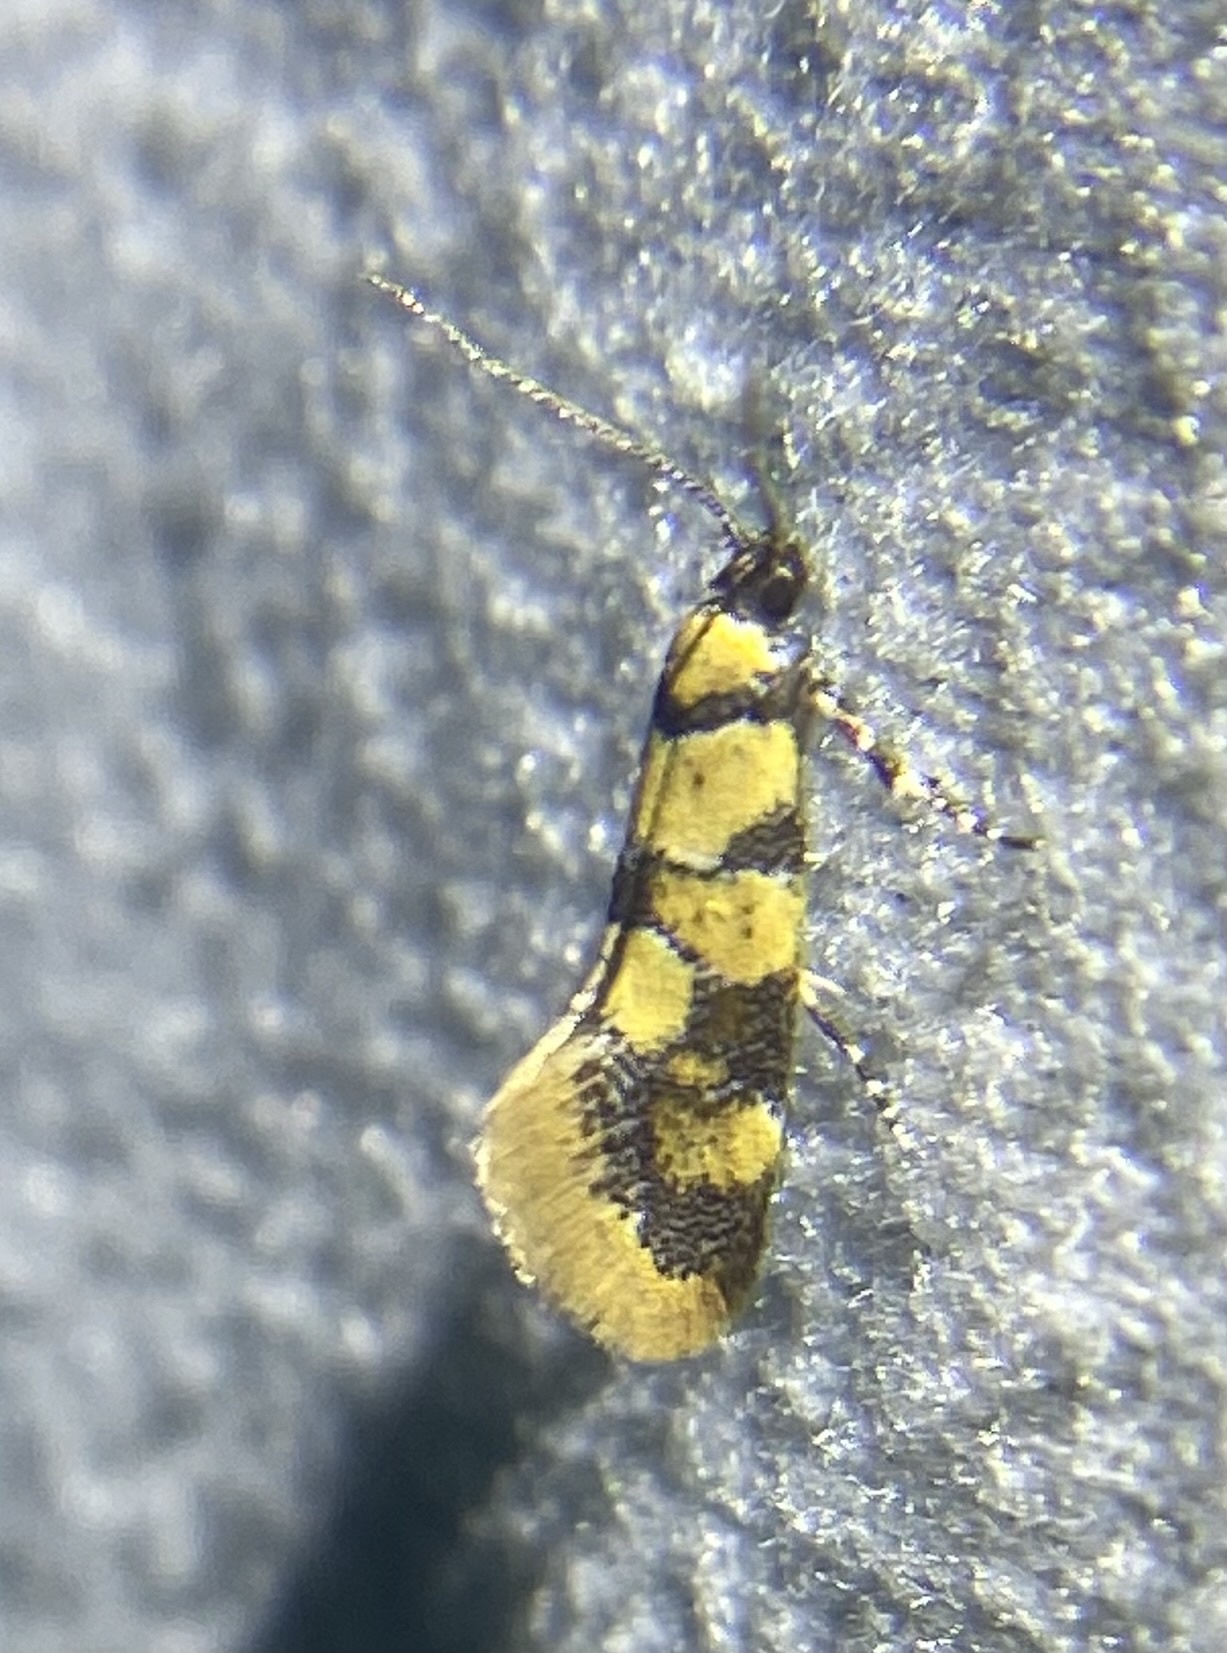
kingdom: Animalia
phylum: Arthropoda
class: Insecta
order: Lepidoptera
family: Oecophoridae
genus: Decantha
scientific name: Decantha borkhausenii
